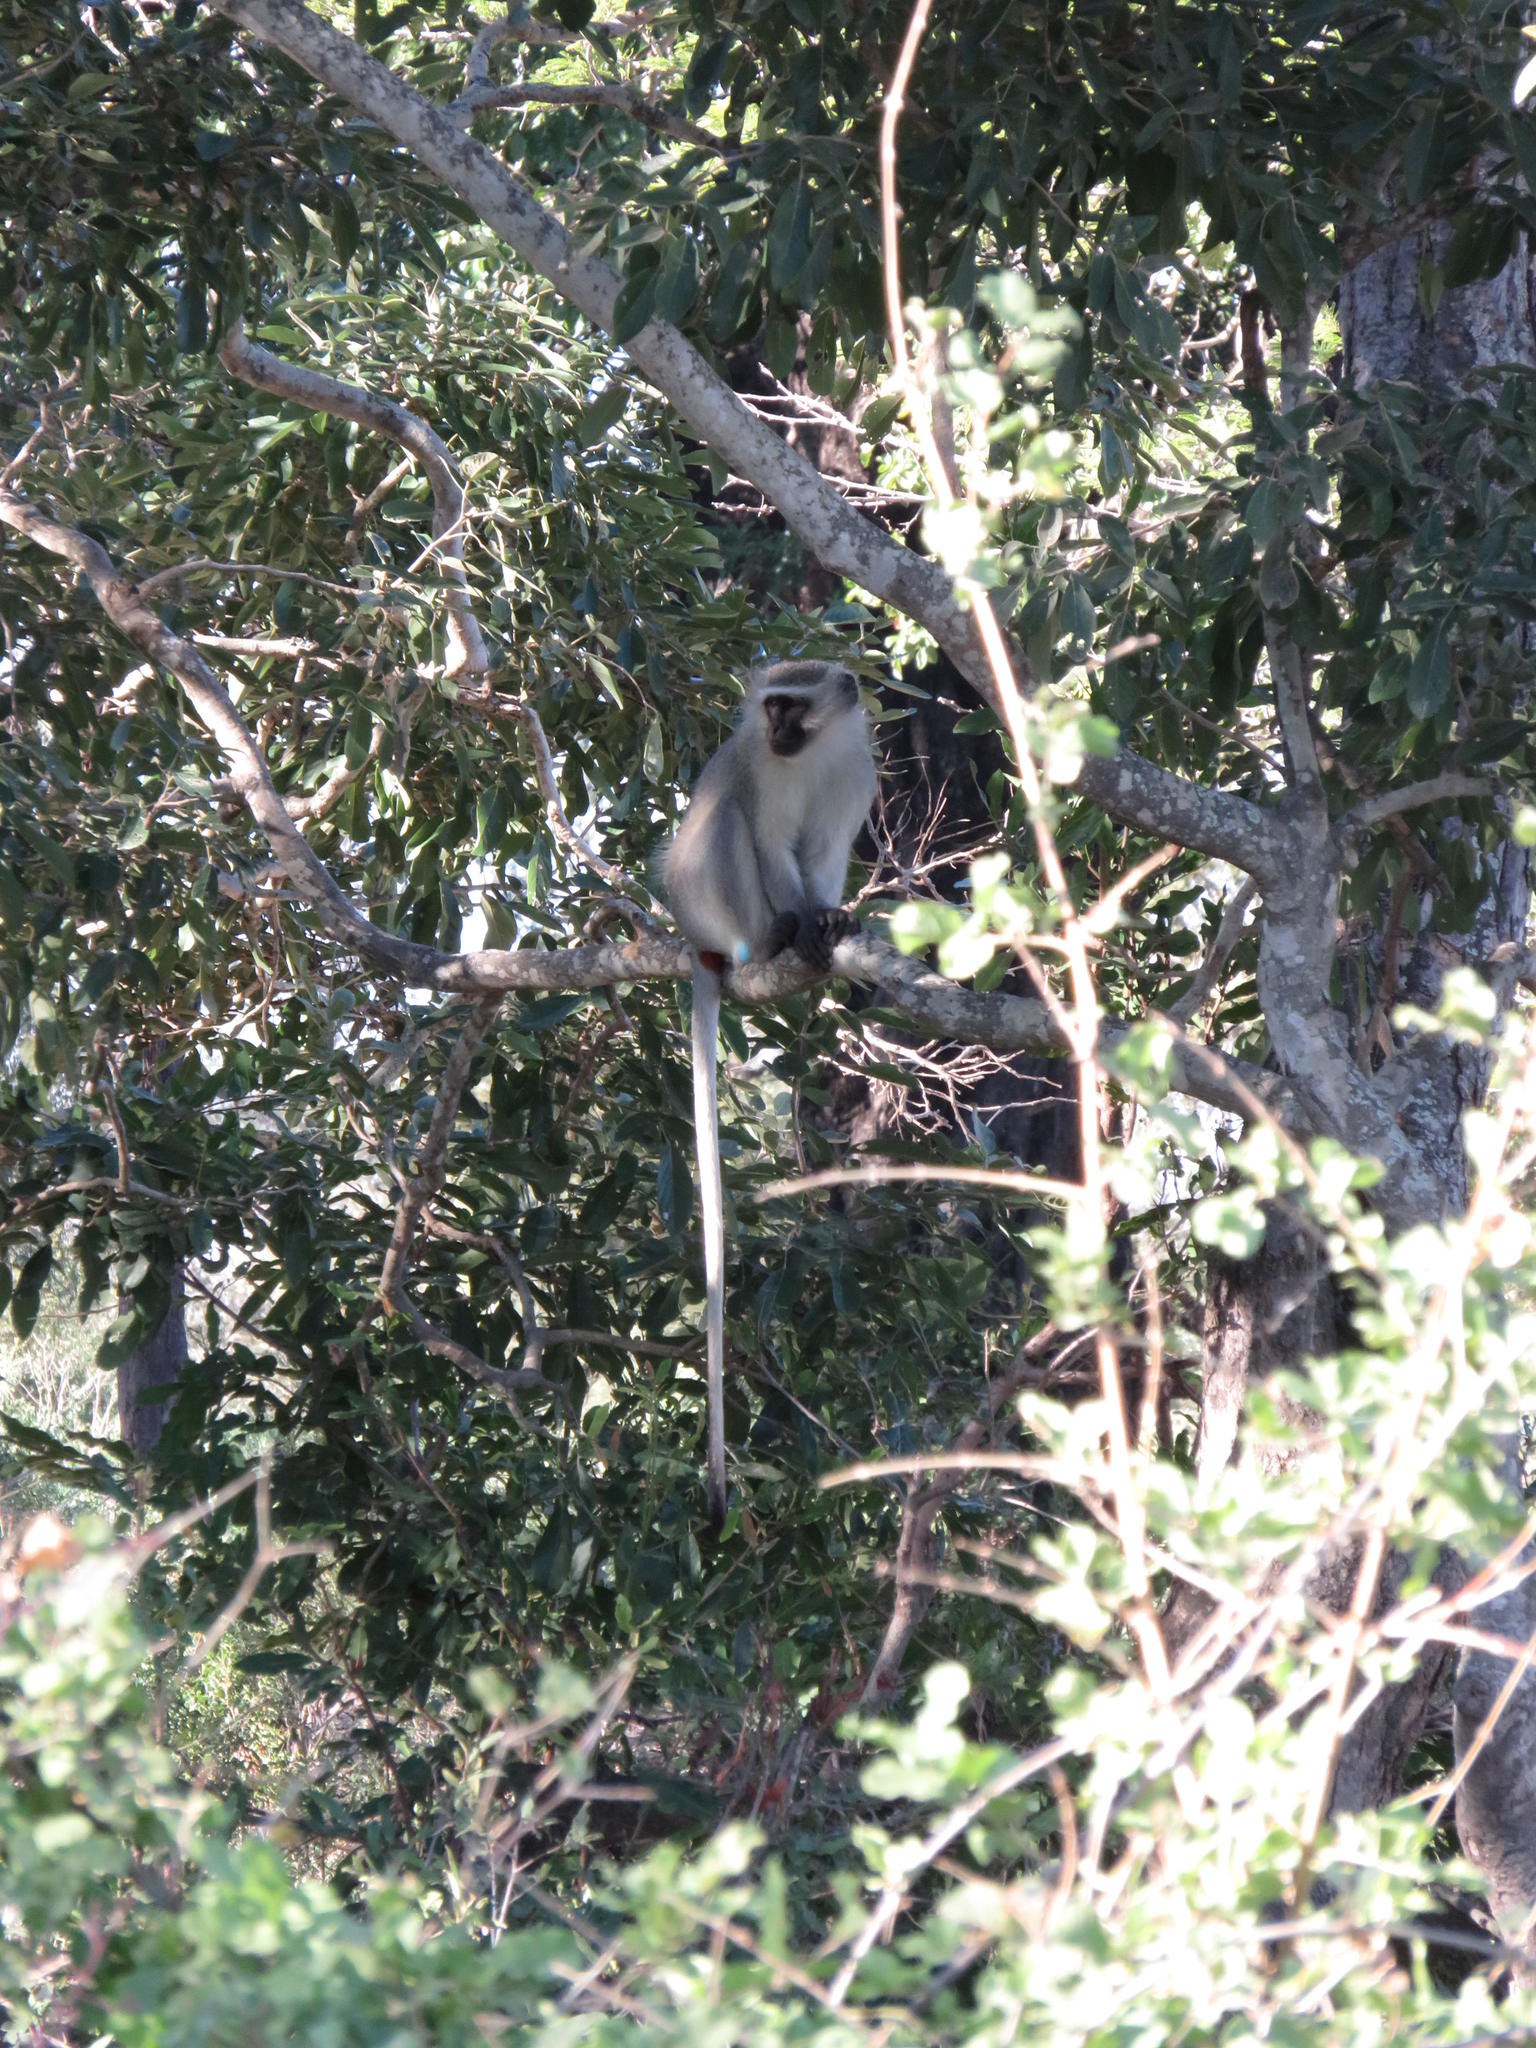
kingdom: Animalia
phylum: Chordata
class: Mammalia
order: Primates
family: Cercopithecidae
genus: Chlorocebus
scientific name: Chlorocebus pygerythrus
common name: Vervet monkey
